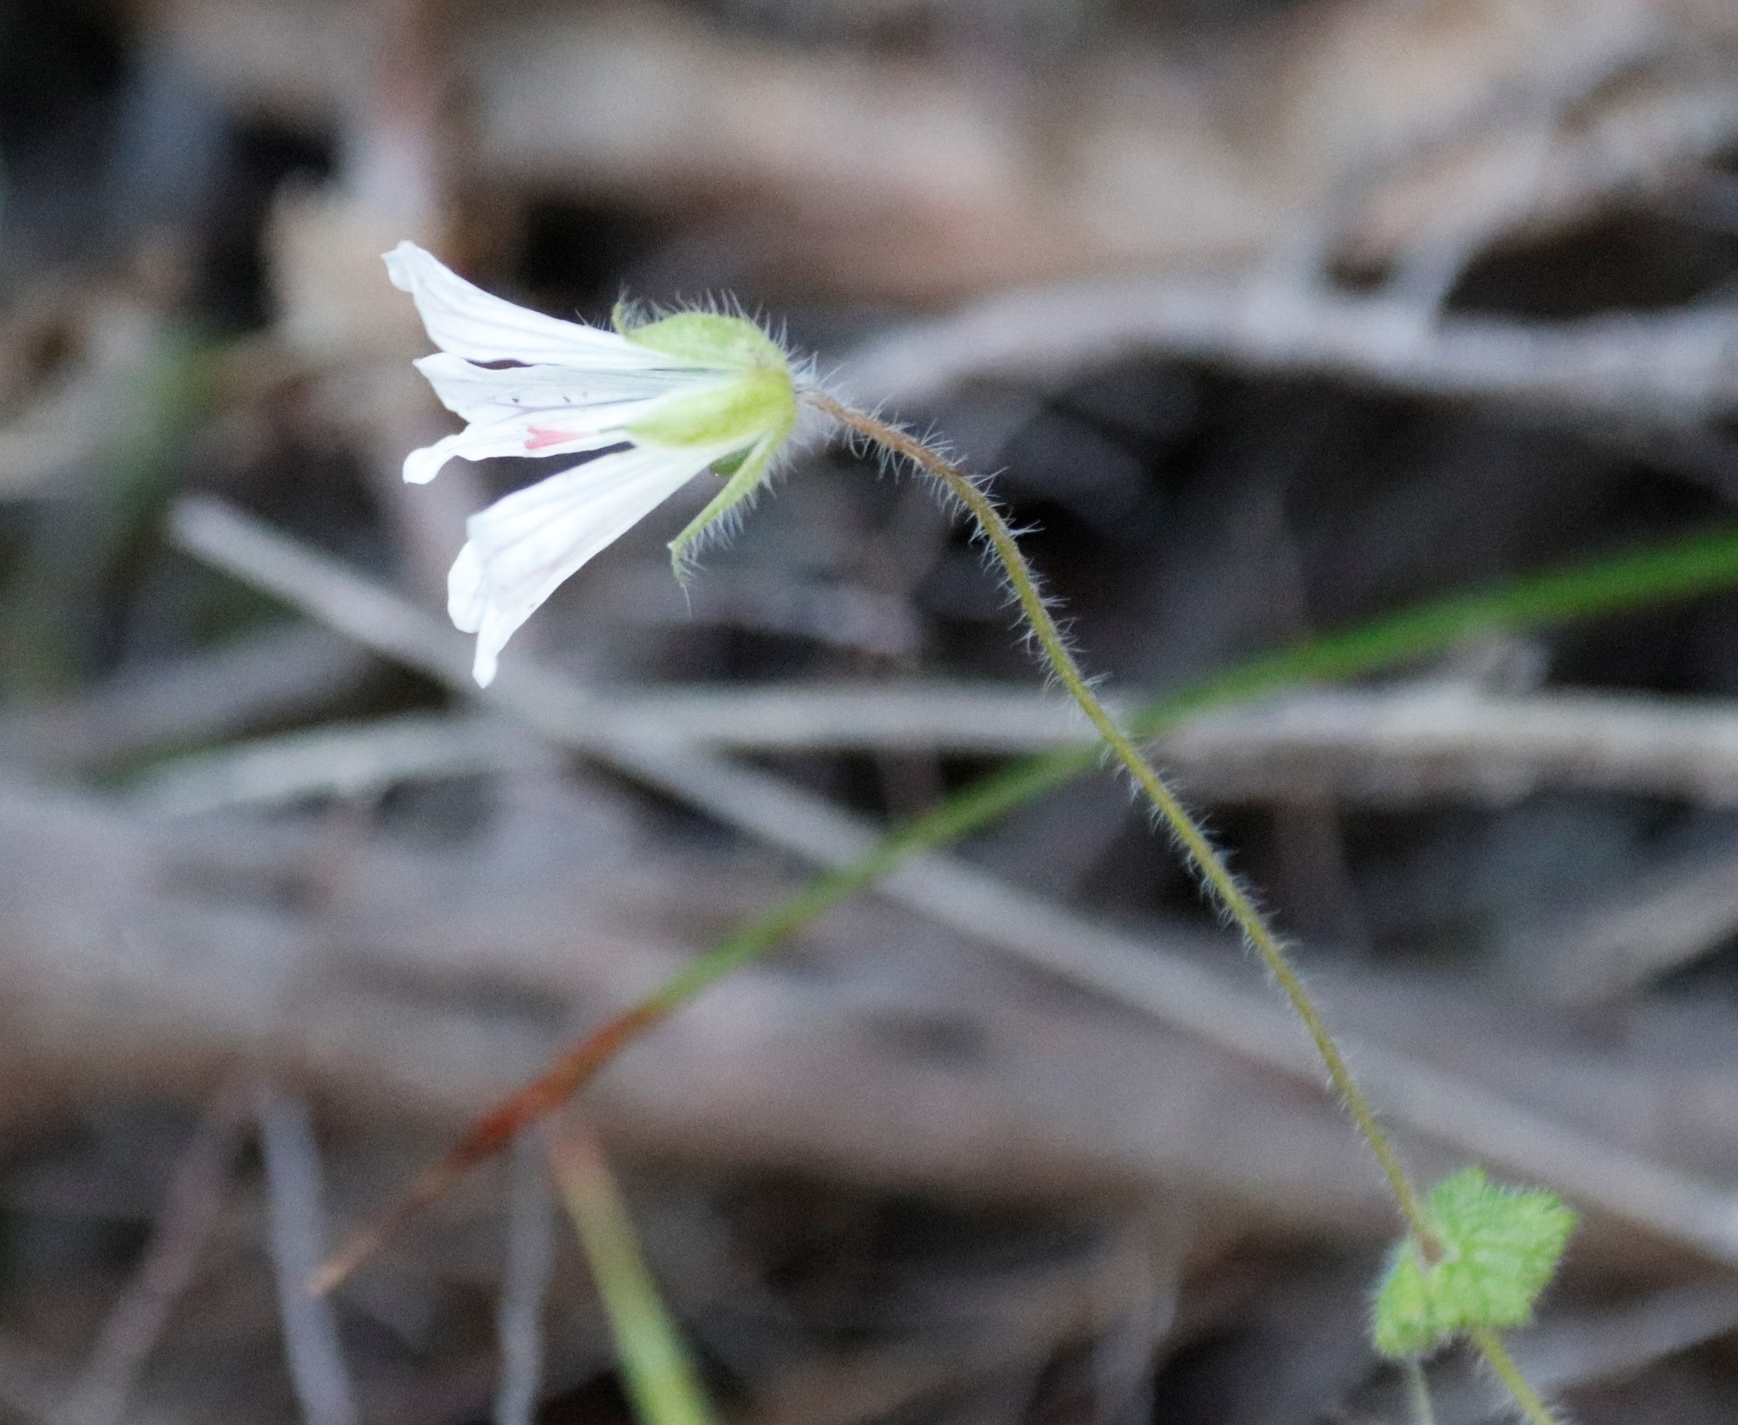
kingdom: Plantae
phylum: Tracheophyta
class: Magnoliopsida
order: Geraniales
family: Geraniaceae
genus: Geranium
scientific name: Geranium wakkerstroomianum
